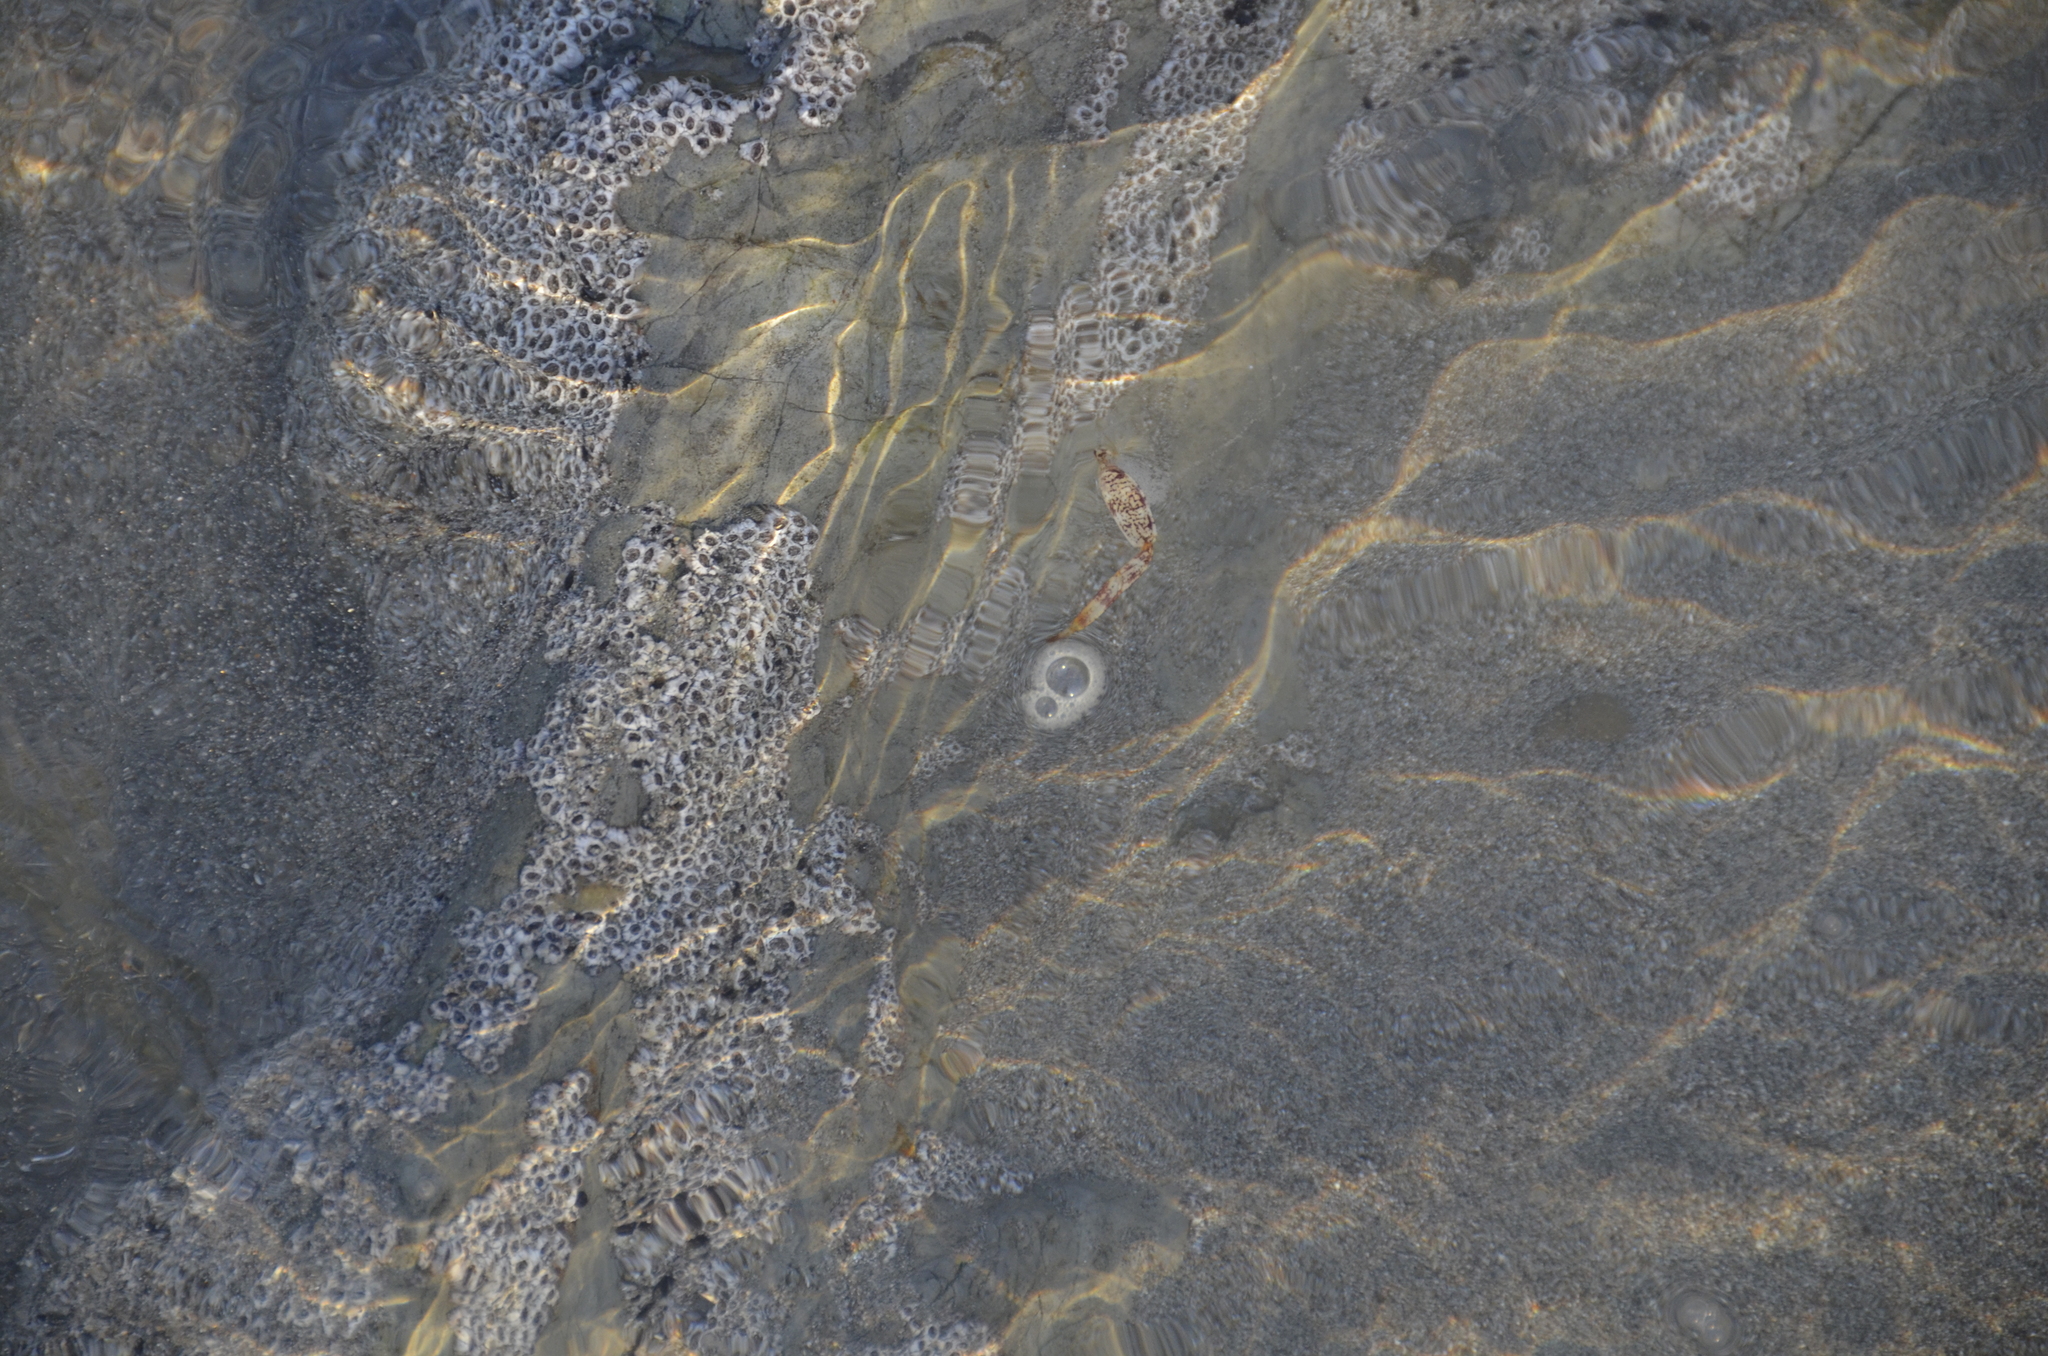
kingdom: Animalia
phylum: Arthropoda
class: Malacostraca
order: Decapoda
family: Grapsidae
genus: Grapsus
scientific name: Grapsus grapsus
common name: Sally lightfoot
